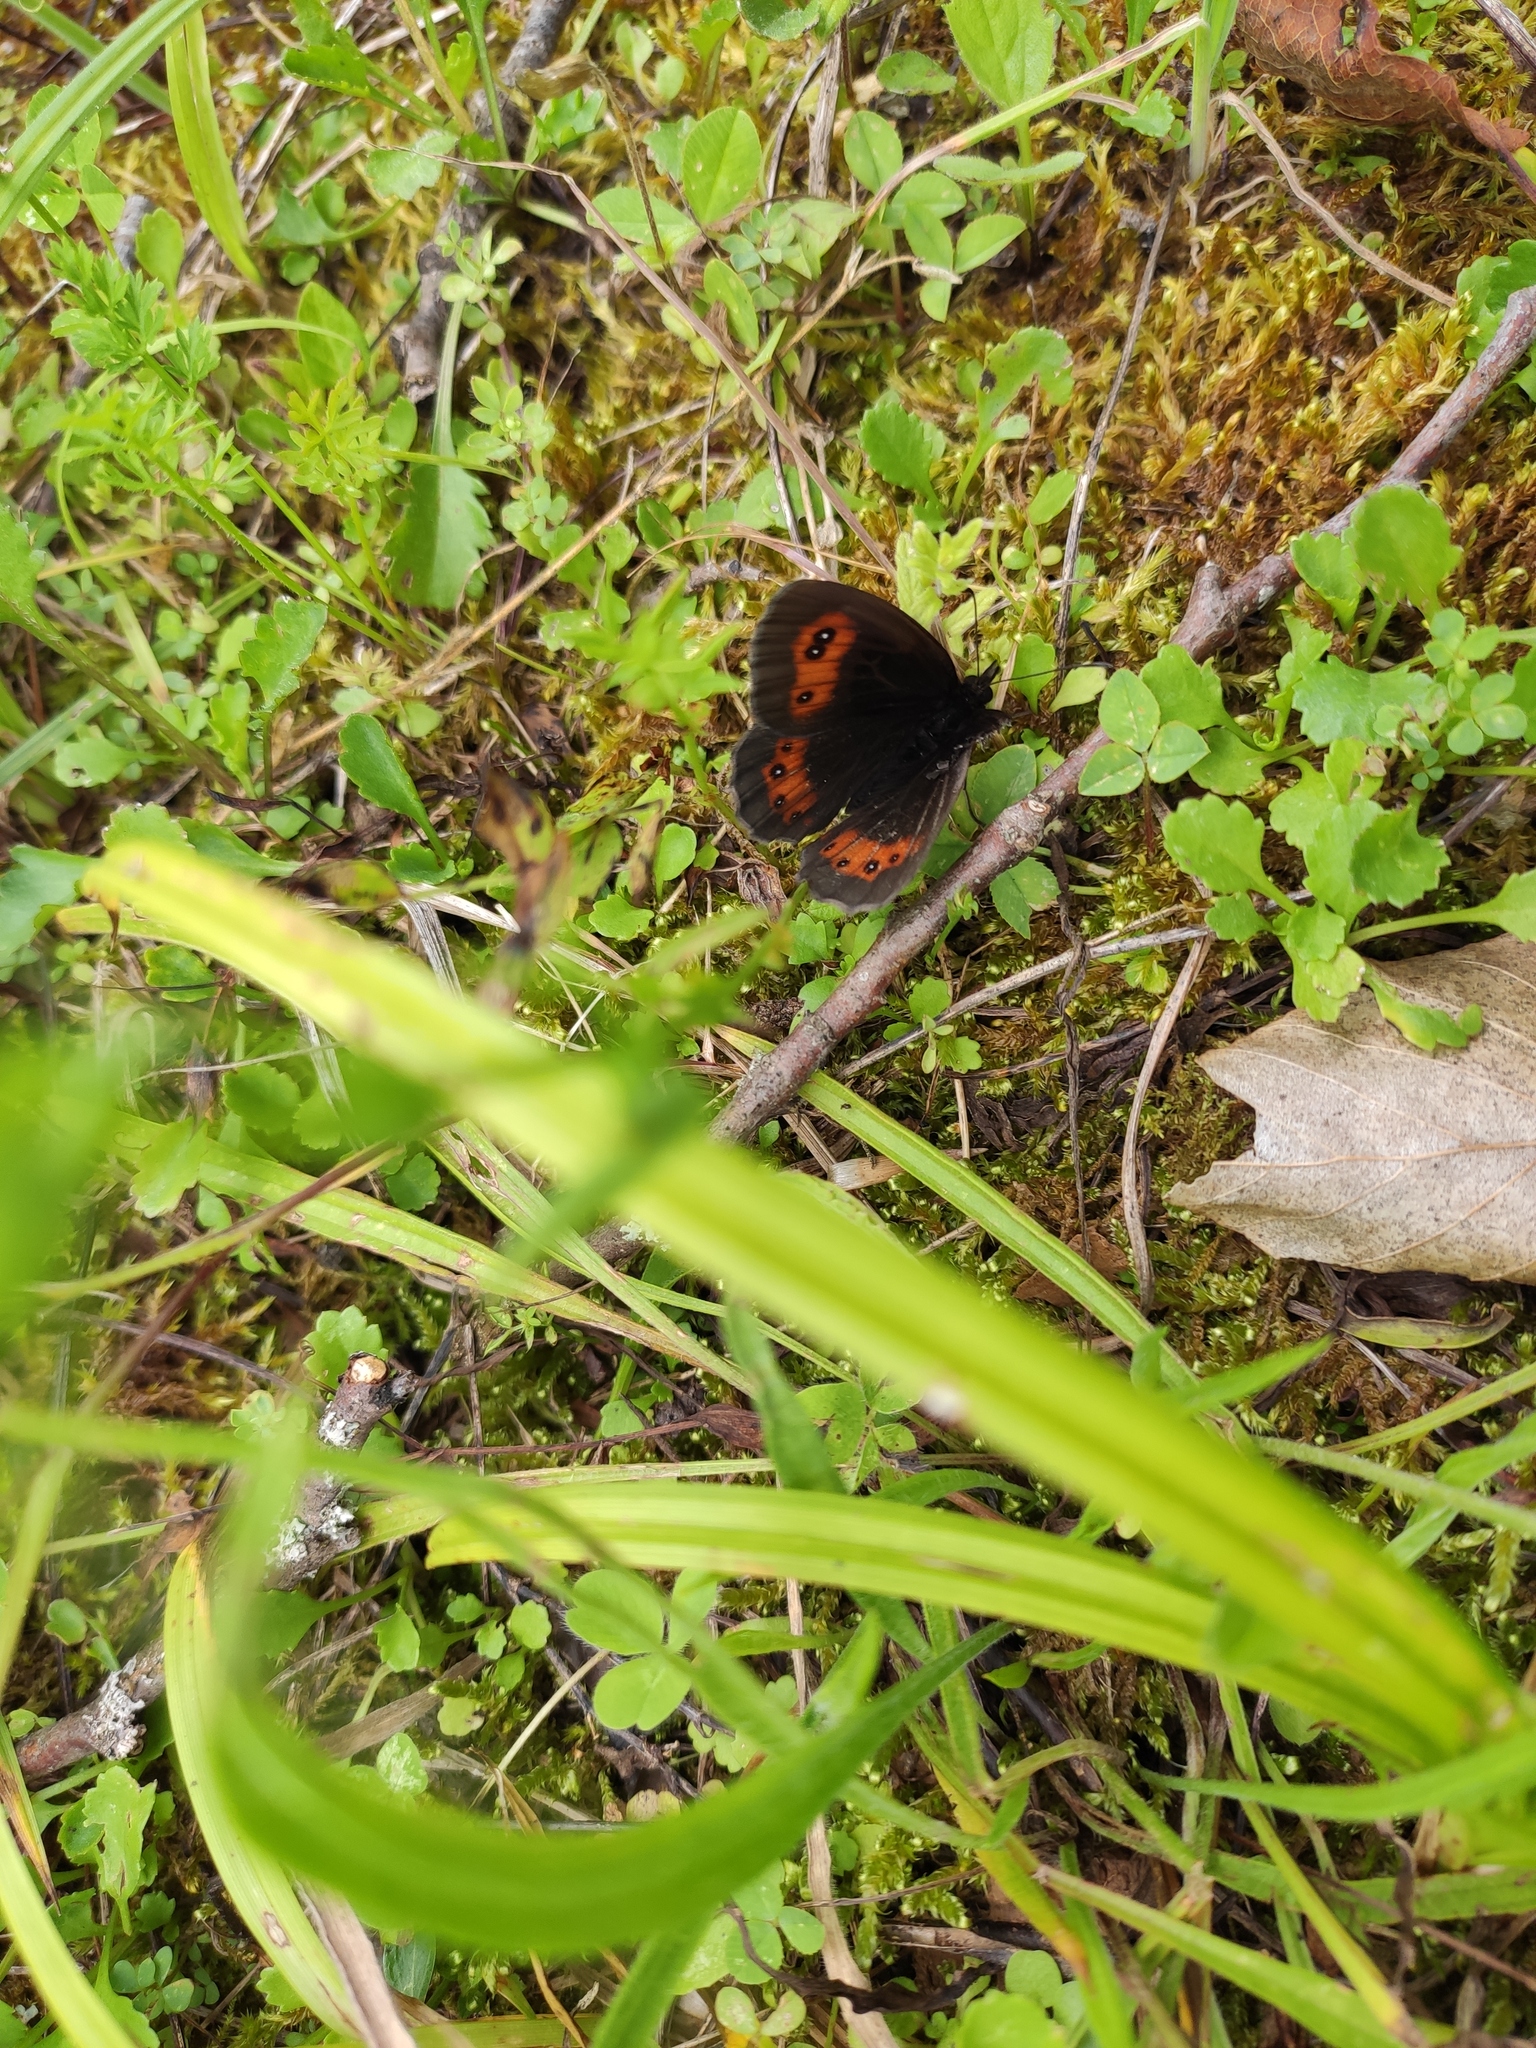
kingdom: Animalia
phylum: Arthropoda
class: Insecta
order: Lepidoptera
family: Nymphalidae
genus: Erebia
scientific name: Erebia aethiops
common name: Scotch argus
